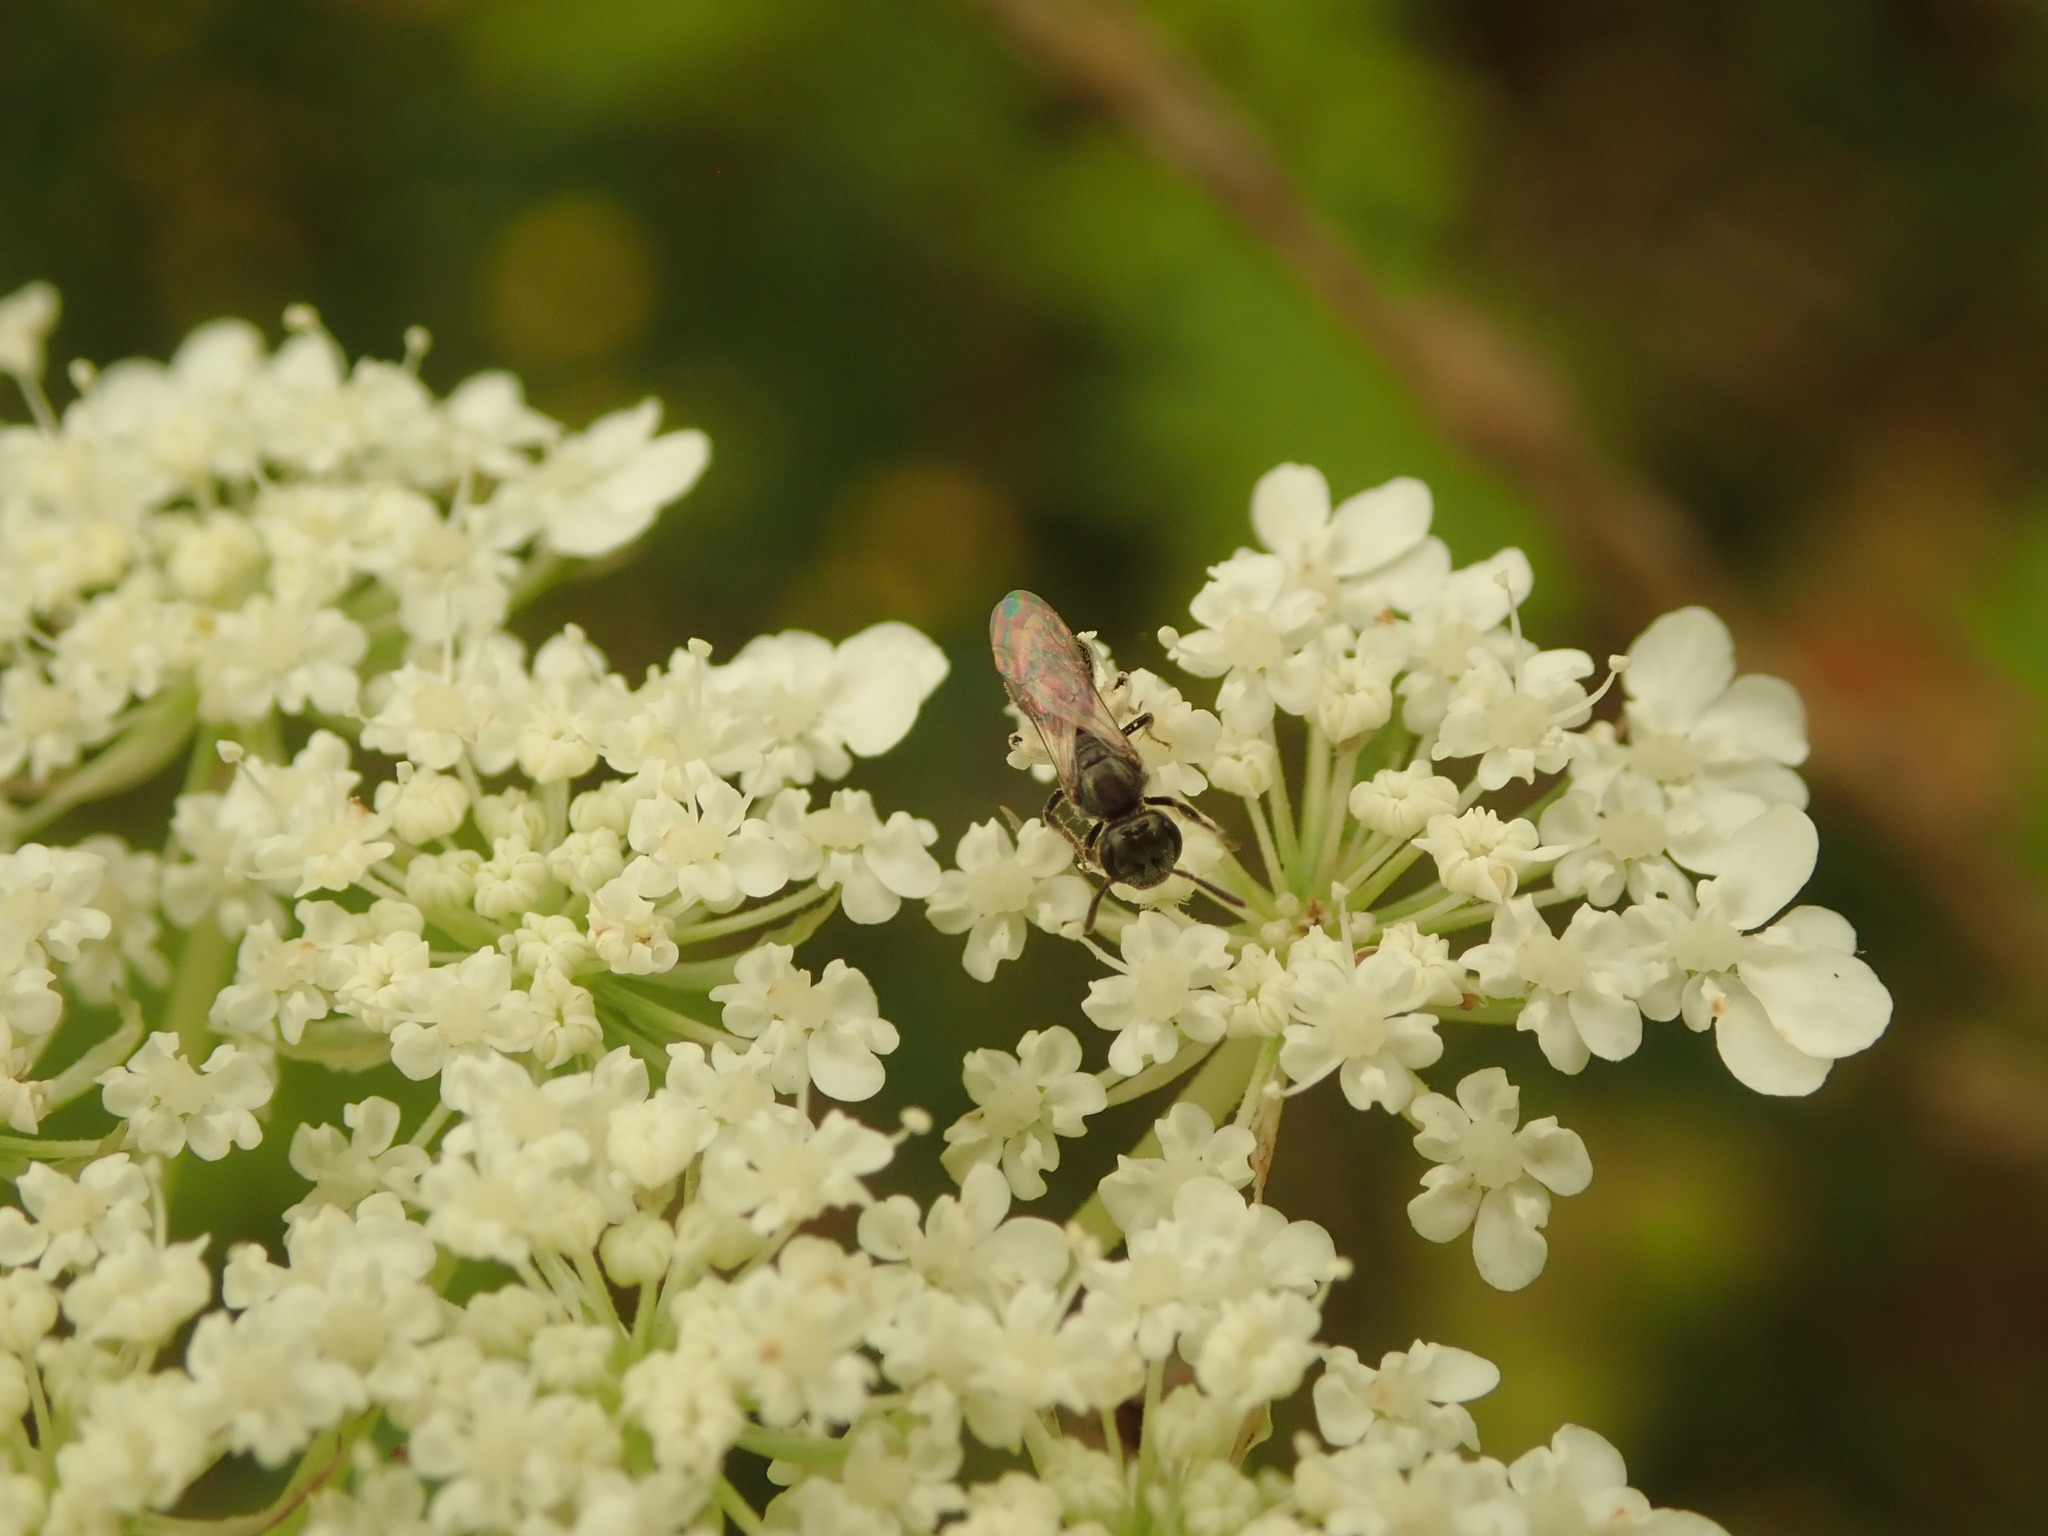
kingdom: Animalia
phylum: Arthropoda
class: Insecta
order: Hymenoptera
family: Halictidae
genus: Dialictus
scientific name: Dialictus
